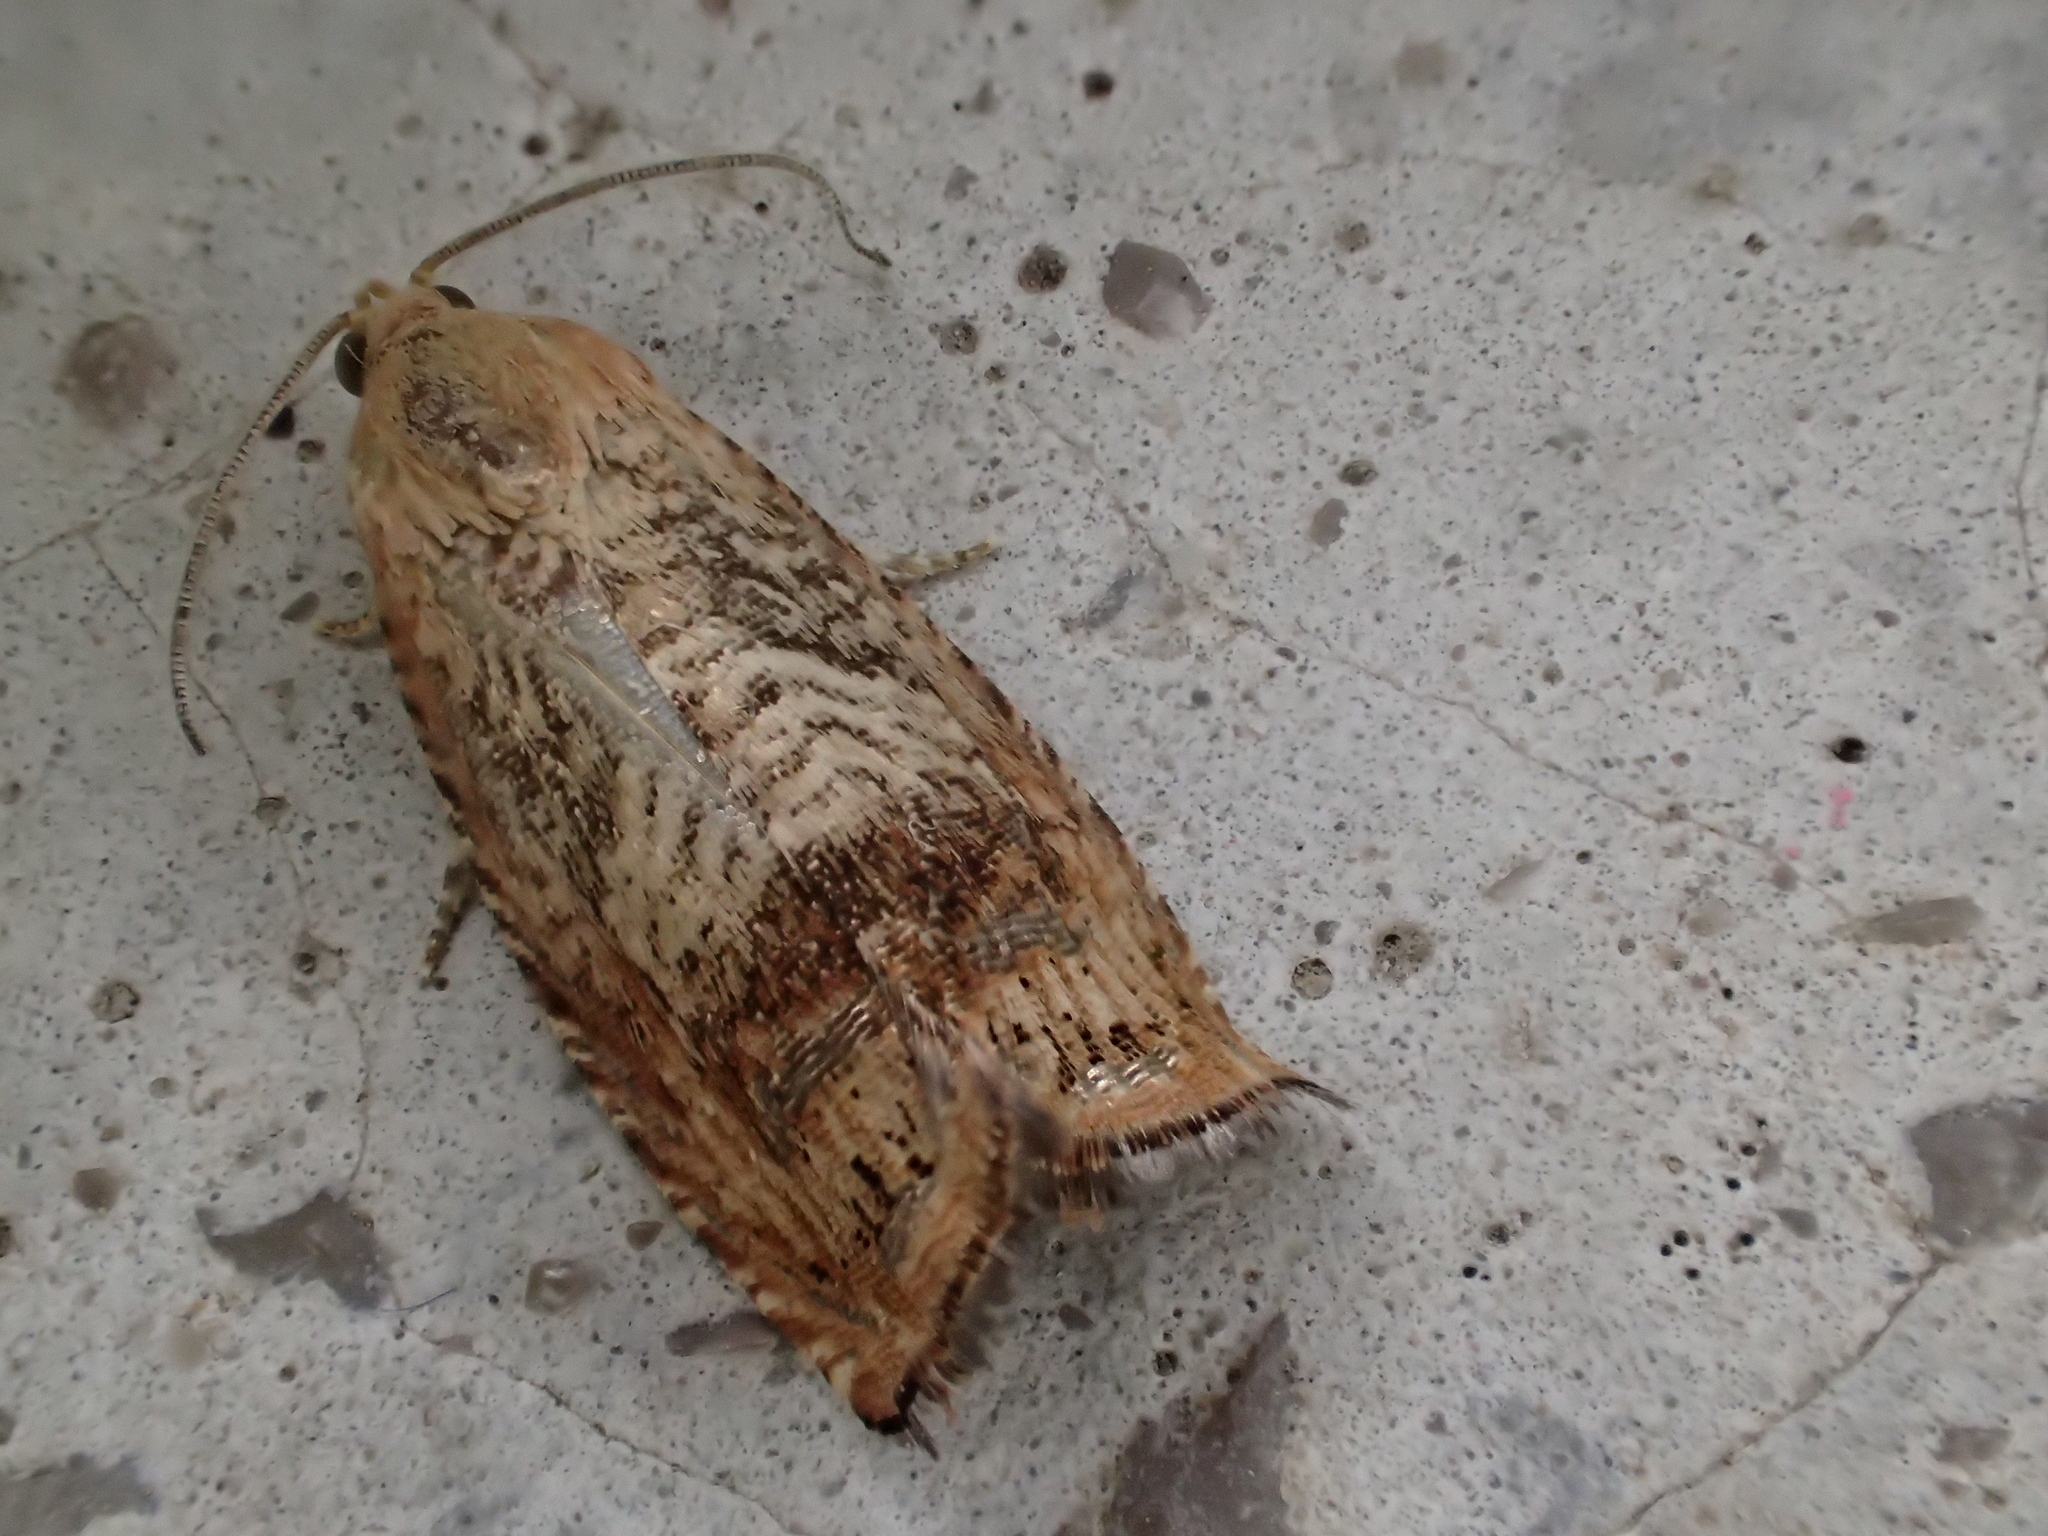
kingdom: Animalia
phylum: Arthropoda
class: Insecta
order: Lepidoptera
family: Tortricidae
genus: Cydia
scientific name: Cydia amplana
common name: Vagrant piercer
